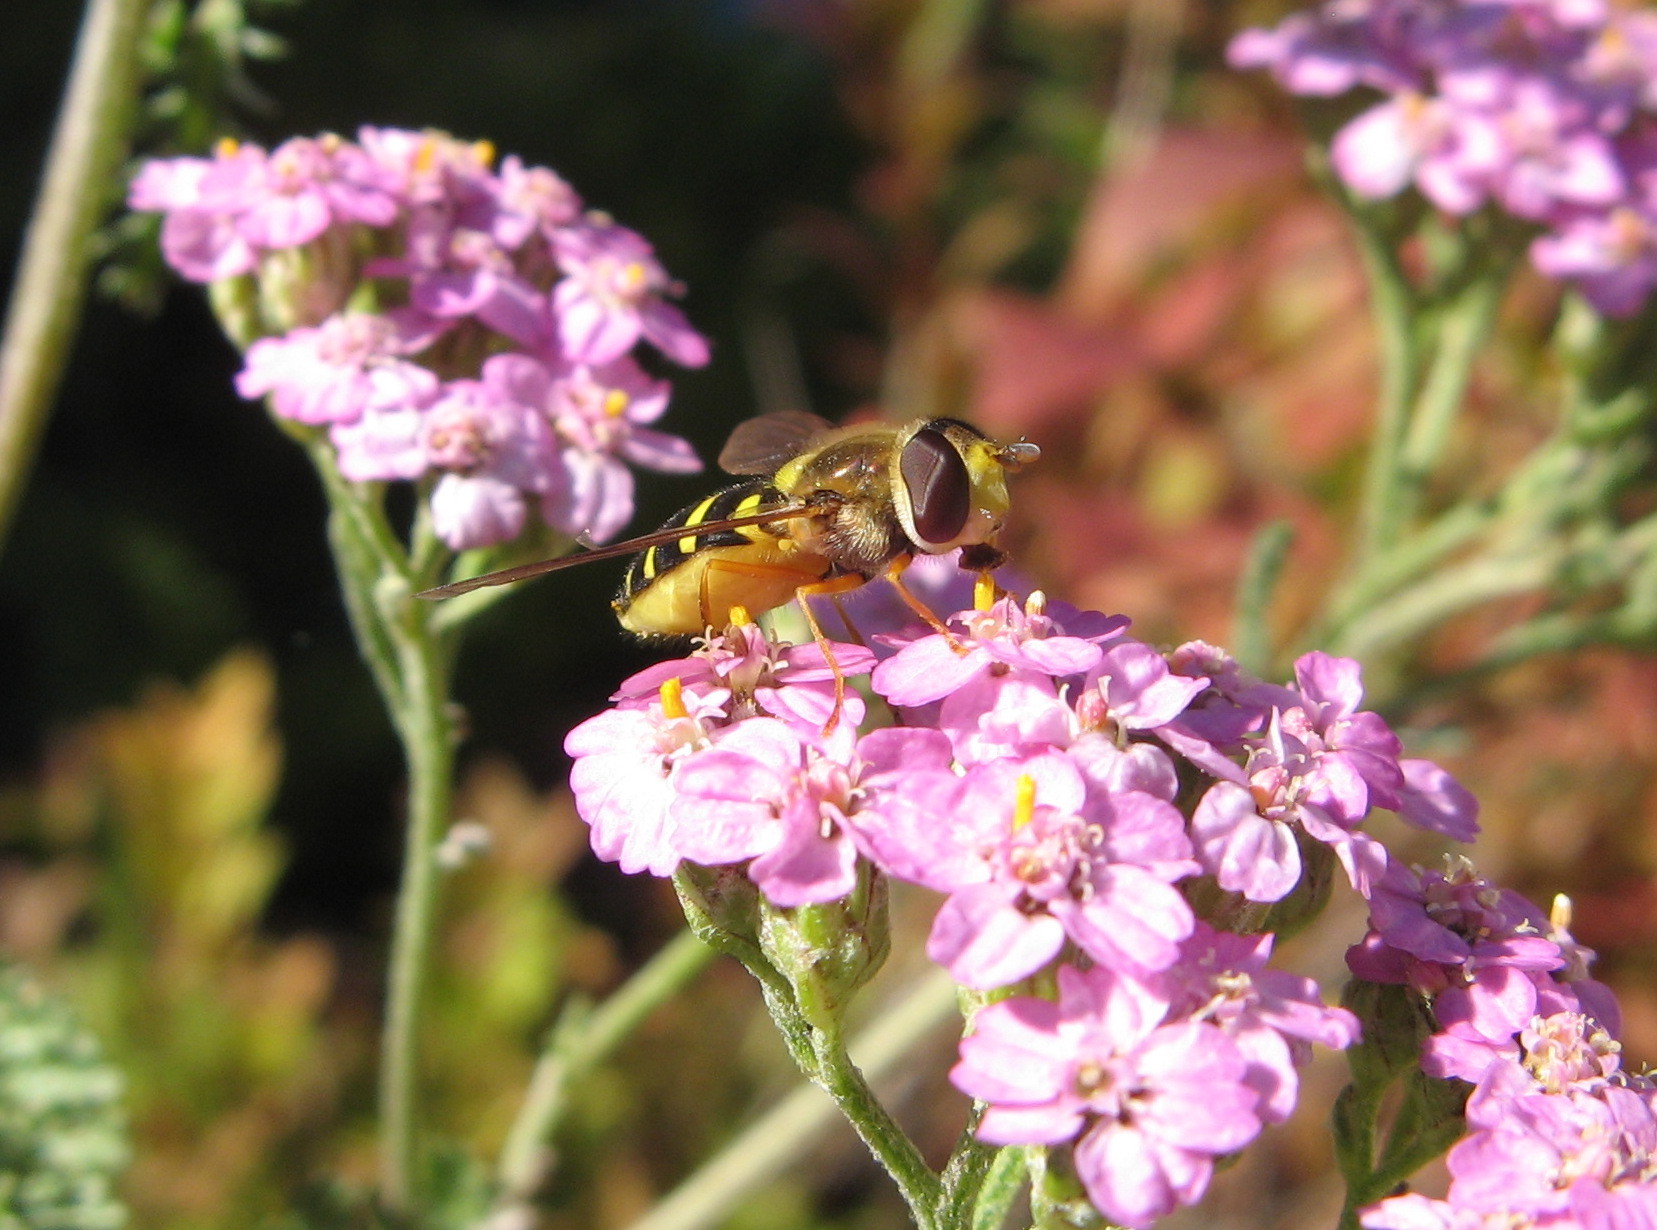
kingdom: Animalia
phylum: Arthropoda
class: Insecta
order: Diptera
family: Syrphidae
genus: Syrphus
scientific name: Syrphus opinator
